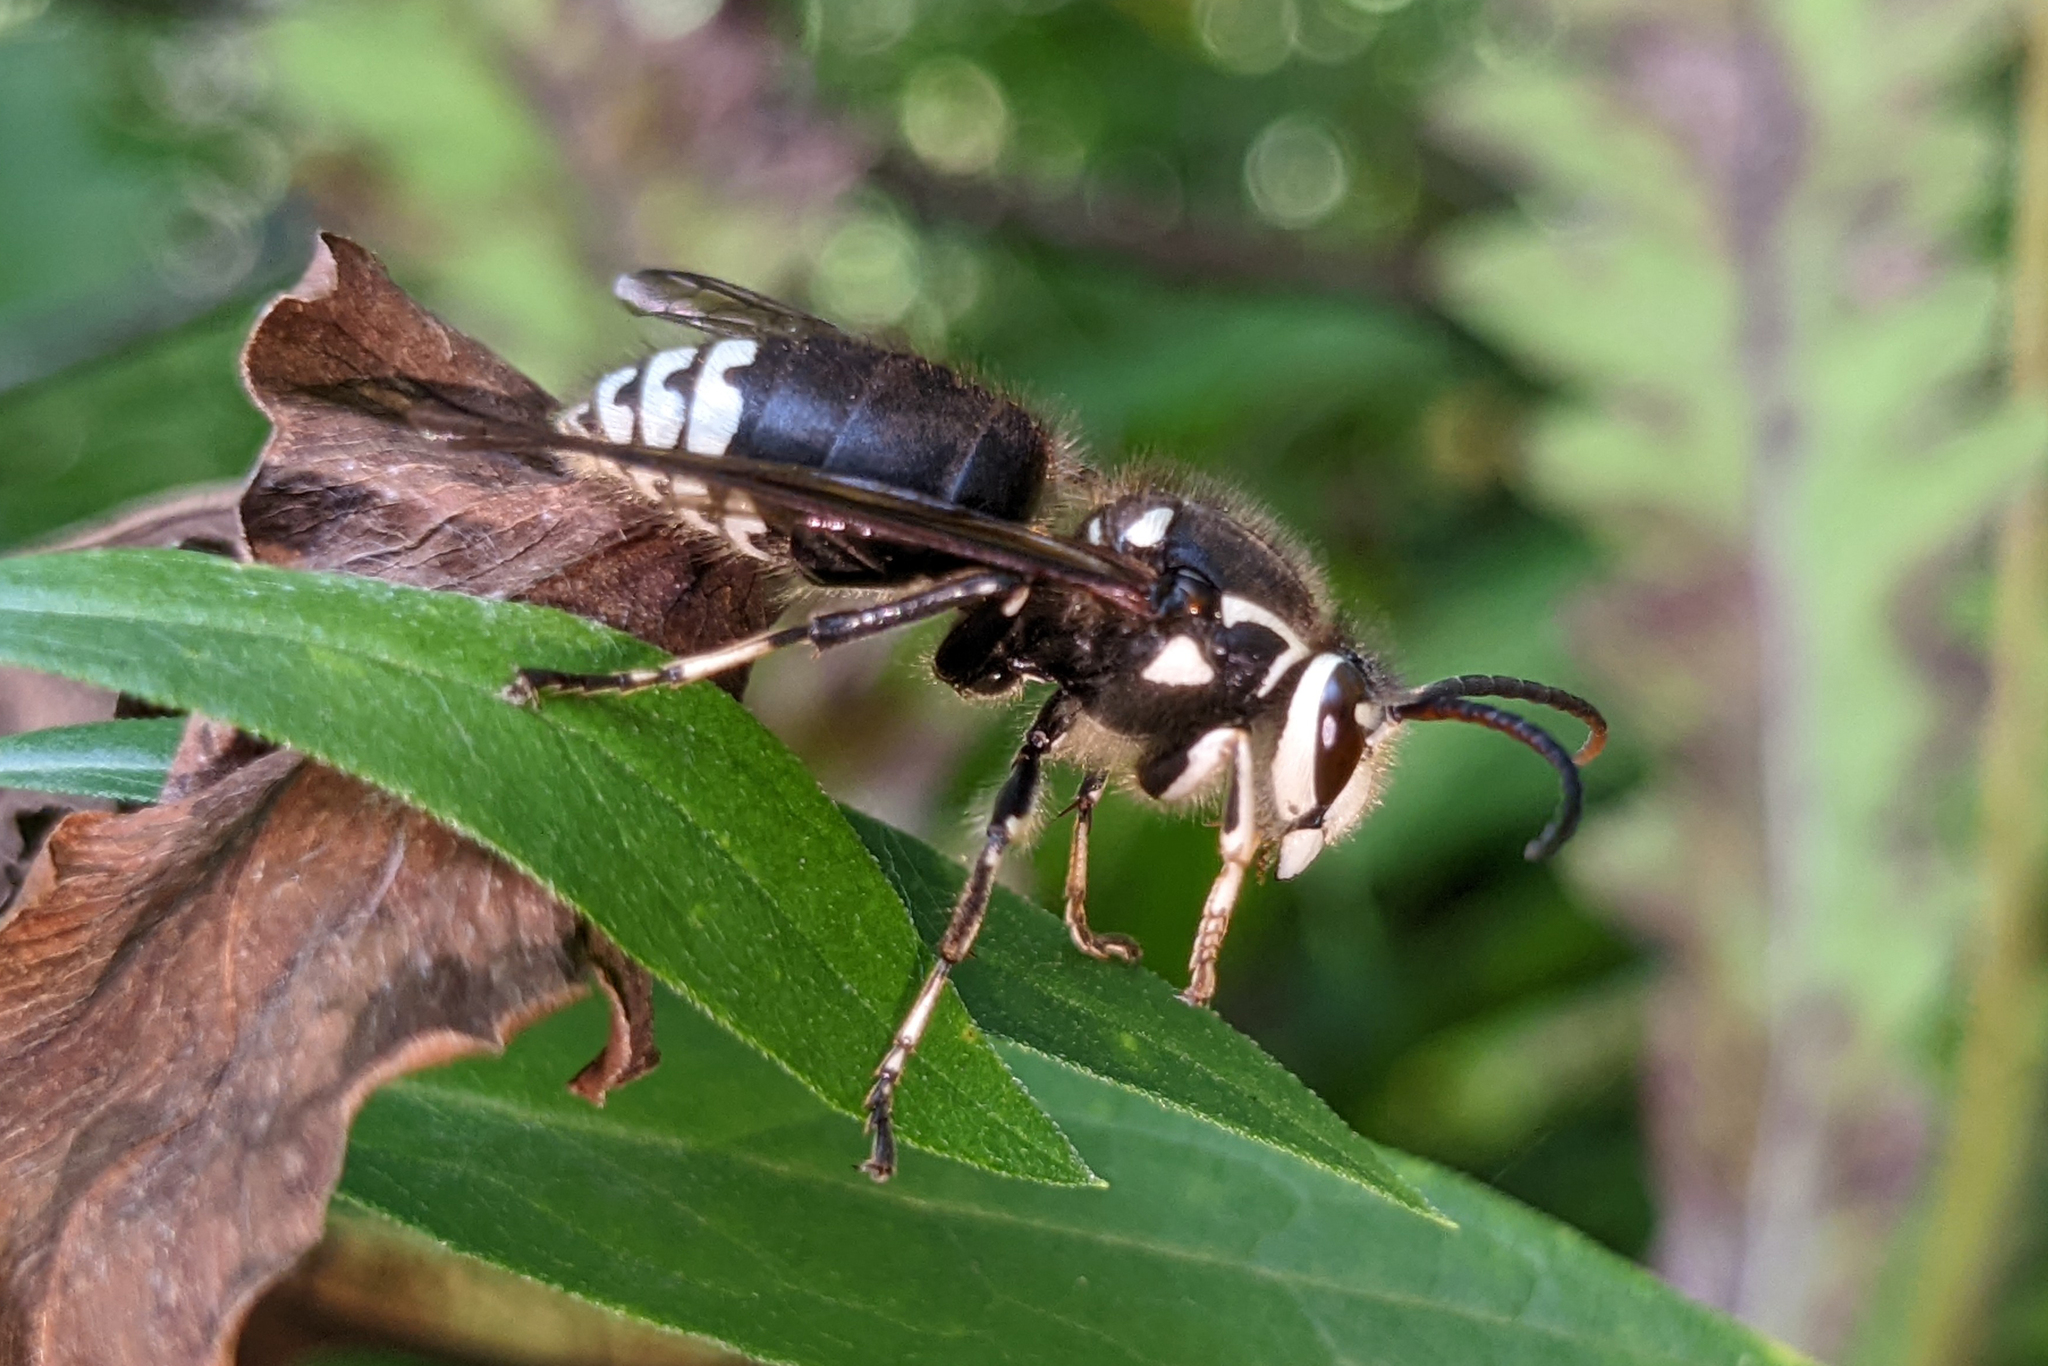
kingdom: Animalia
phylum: Arthropoda
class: Insecta
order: Hymenoptera
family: Vespidae
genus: Dolichovespula
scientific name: Dolichovespula maculata
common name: Bald-faced hornet
